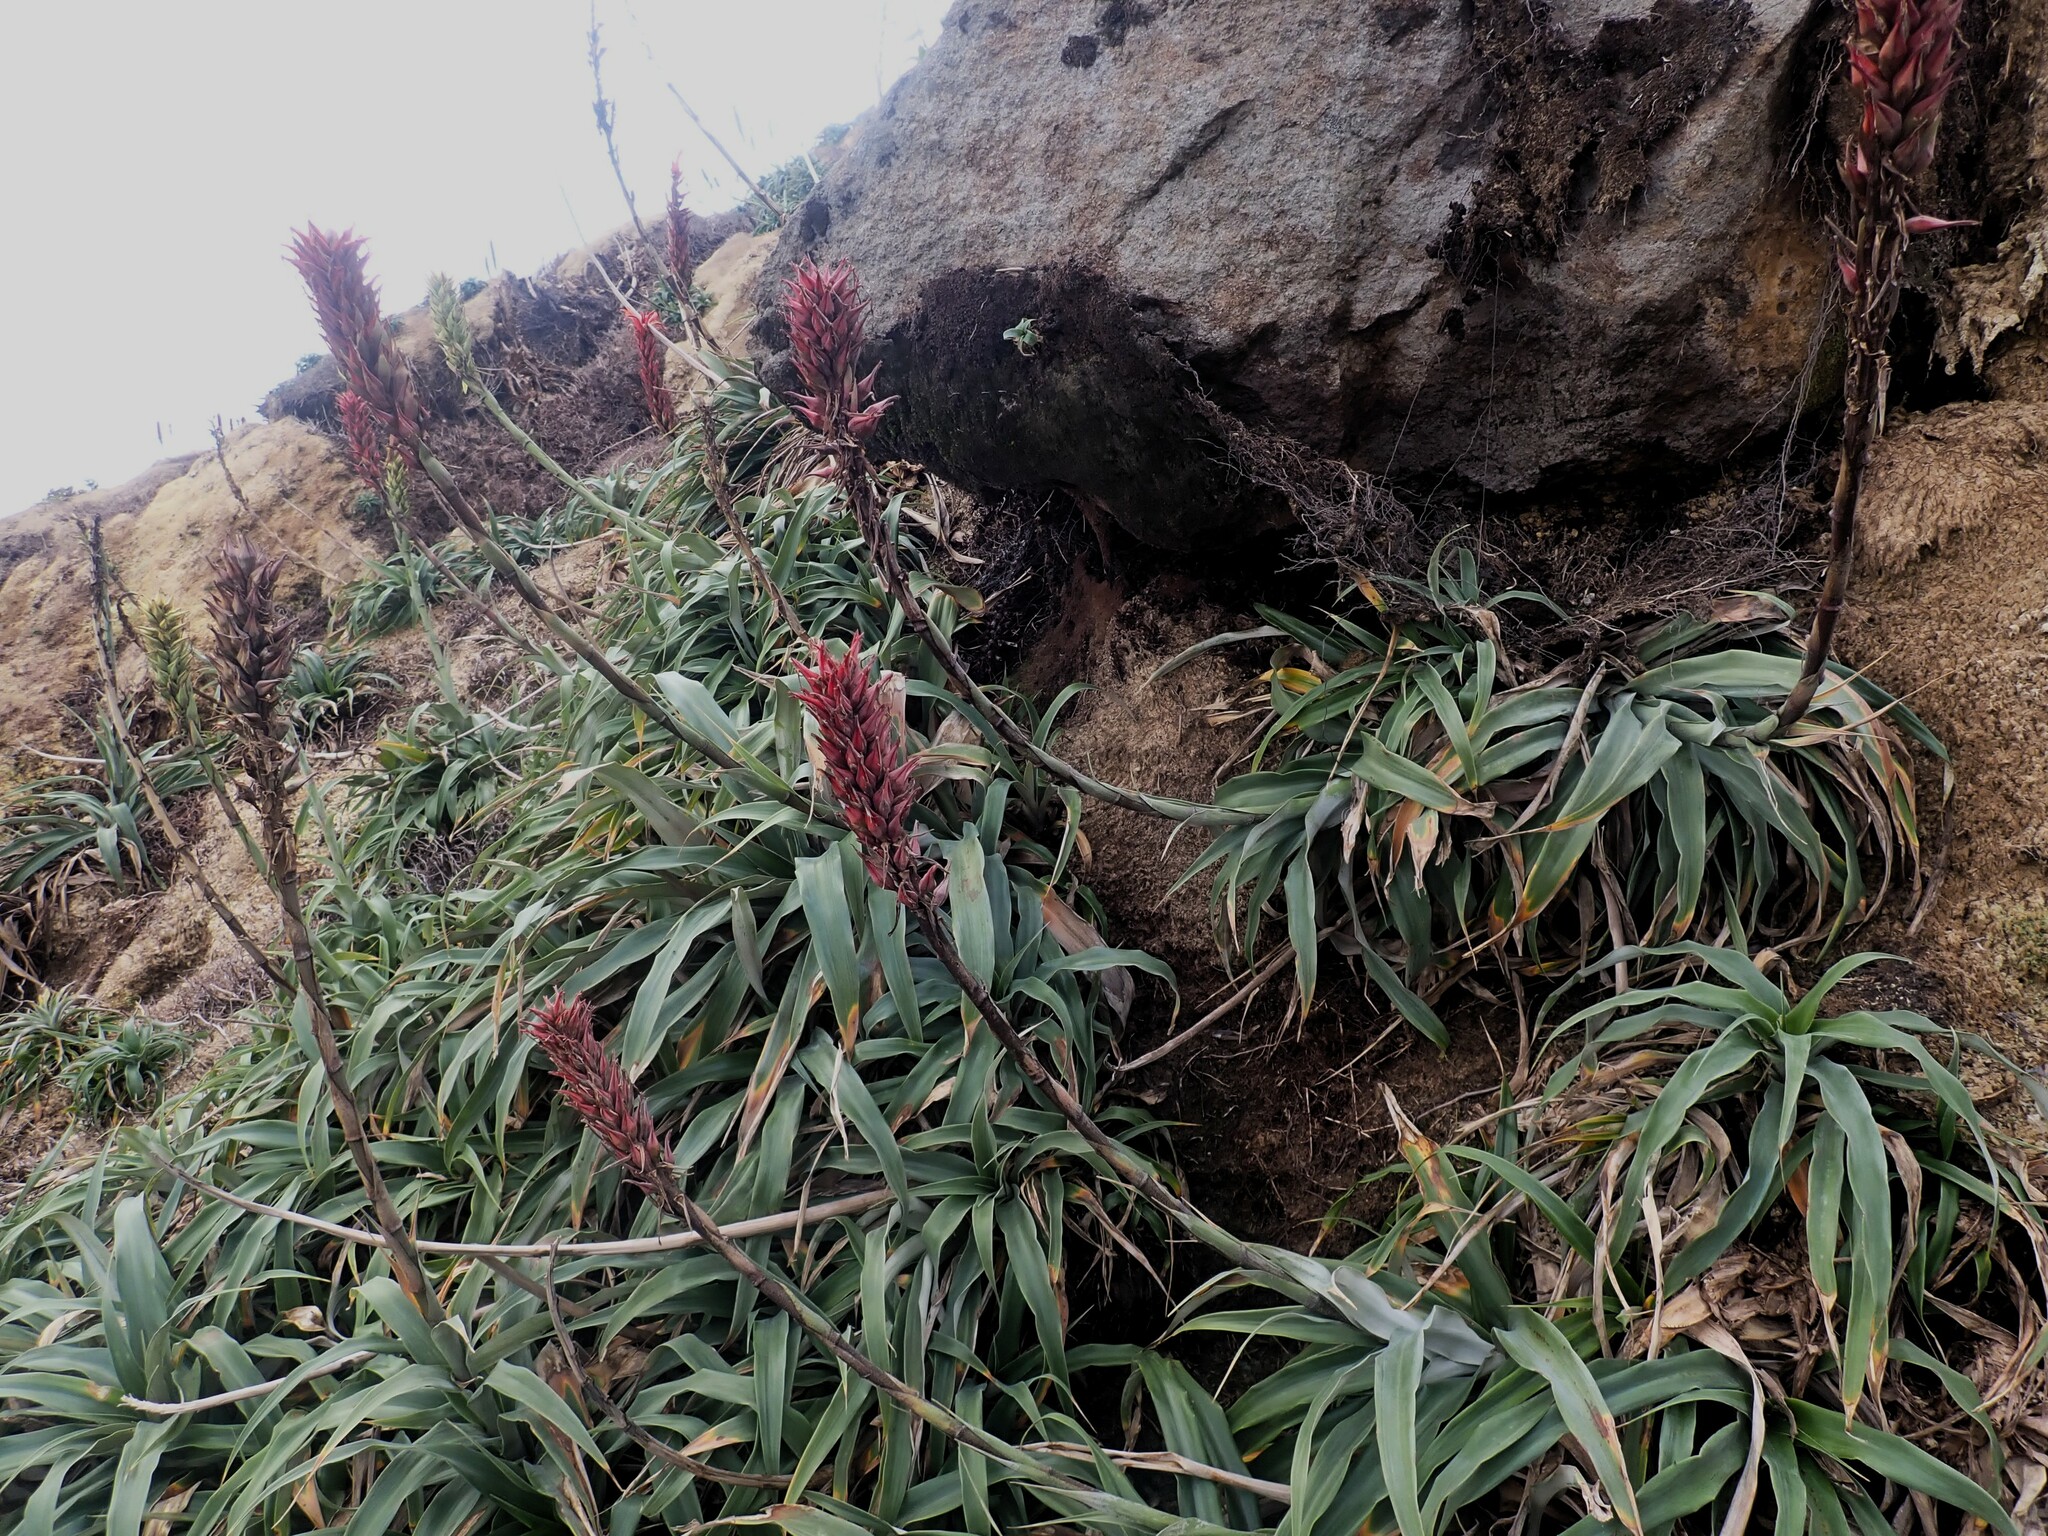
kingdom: Plantae
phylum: Tracheophyta
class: Liliopsida
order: Poales
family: Bromeliaceae
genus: Pitcairnia
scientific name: Pitcairnia bifrons
